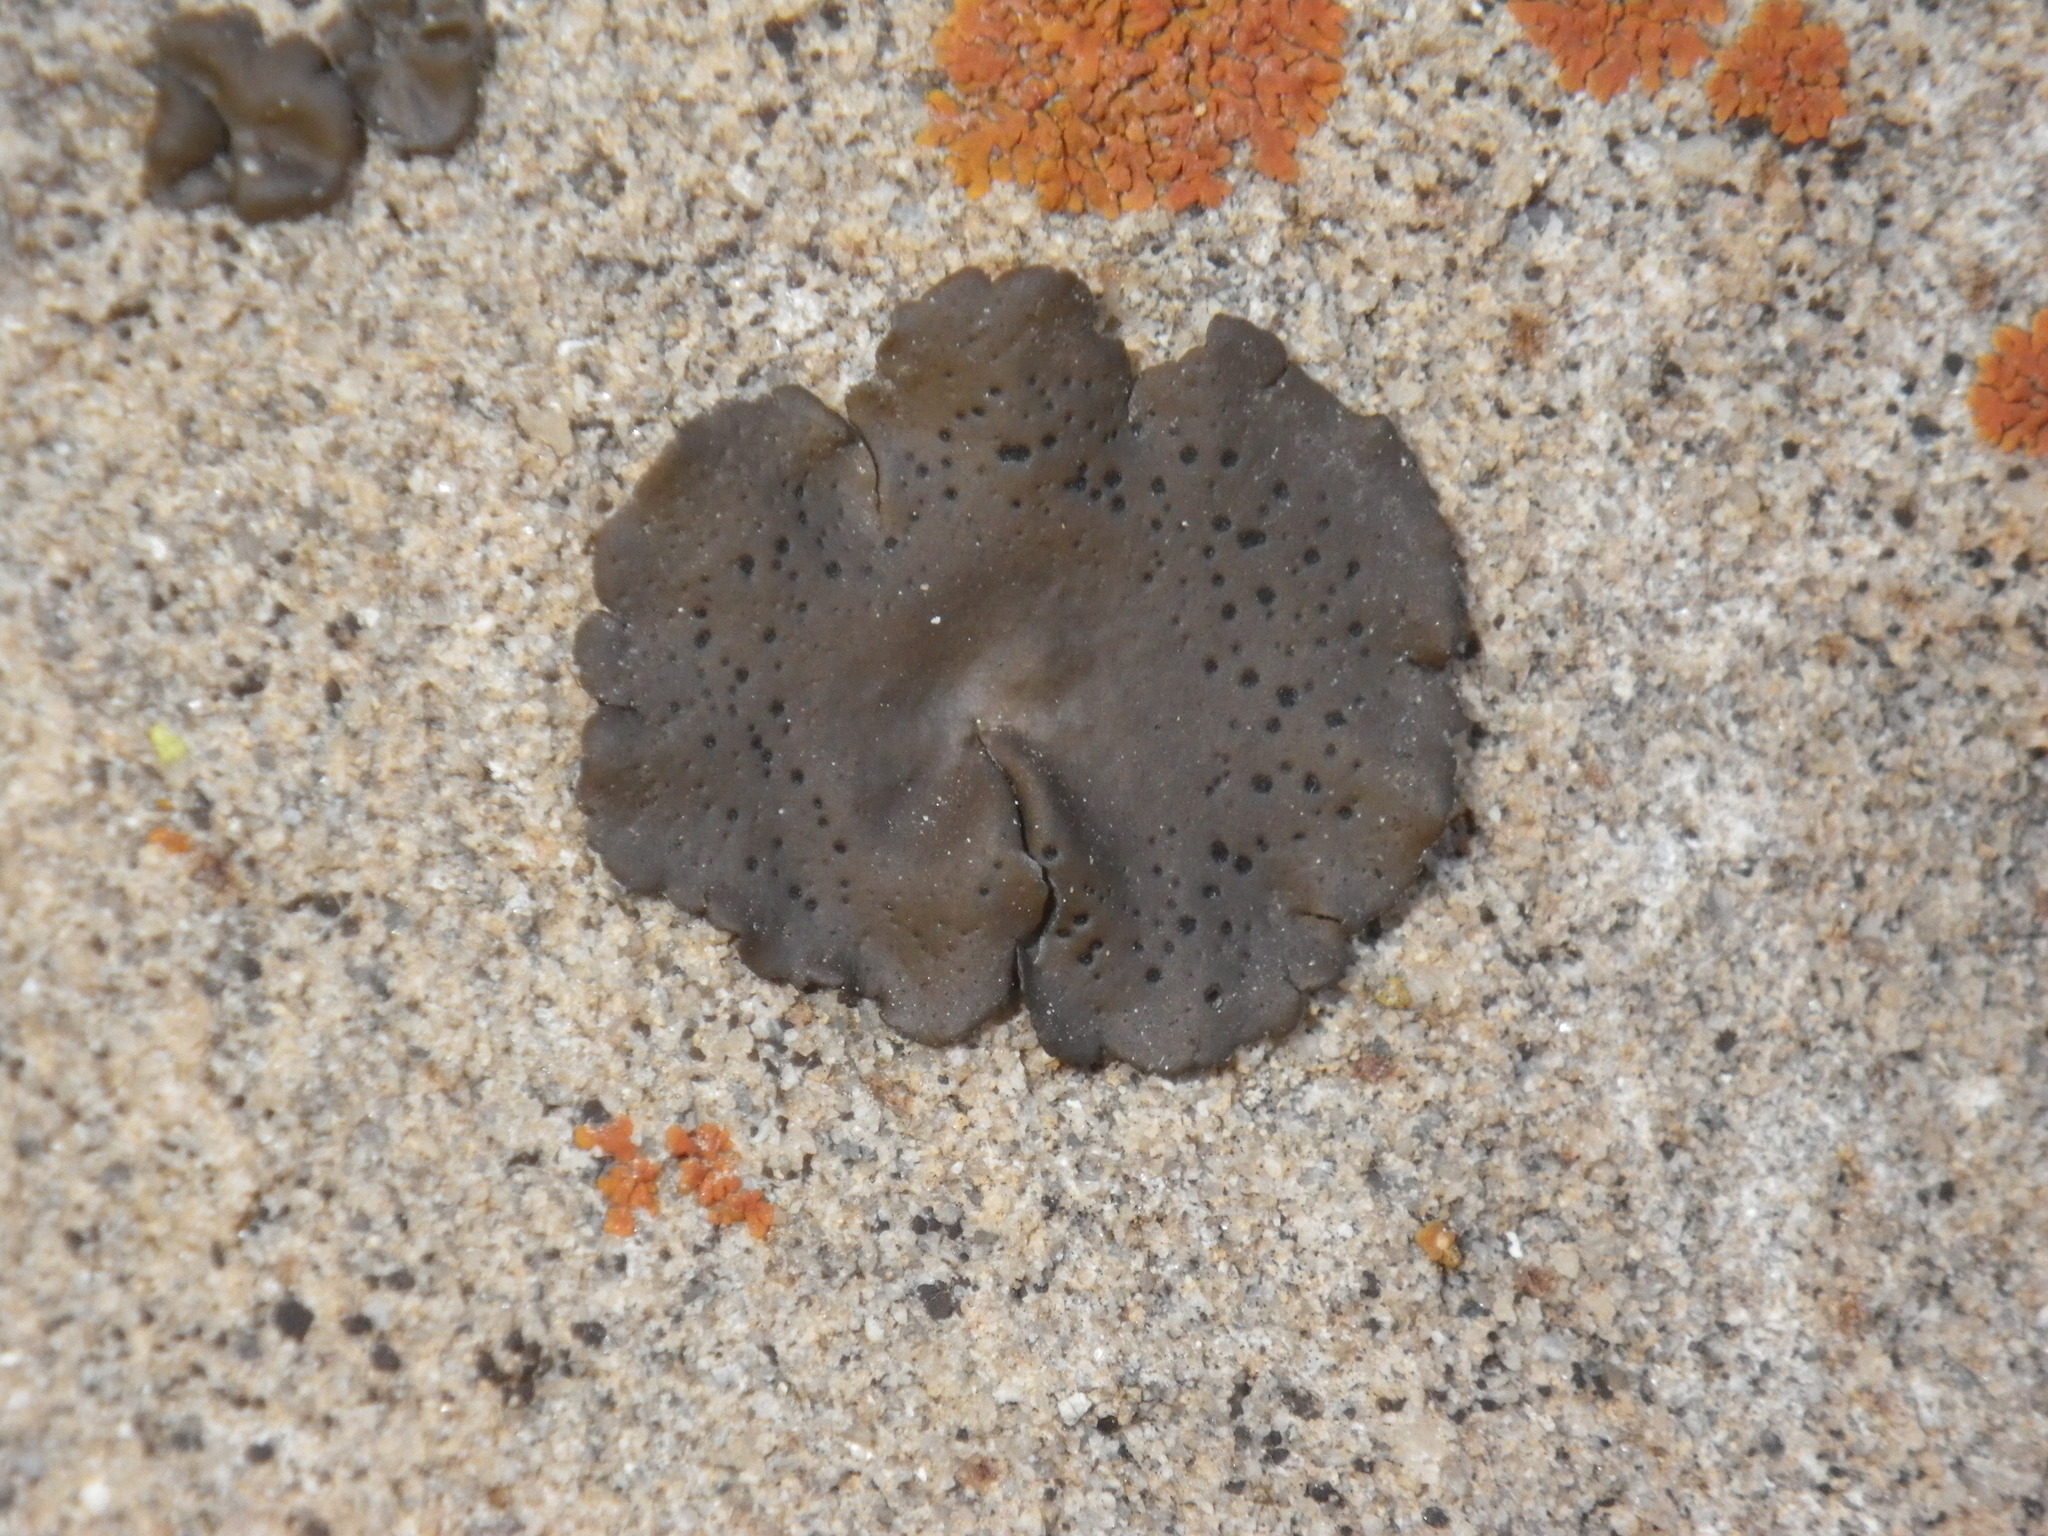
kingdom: Fungi
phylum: Ascomycota
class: Lecanoromycetes
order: Umbilicariales
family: Umbilicariaceae
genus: Umbilicaria
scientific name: Umbilicaria phaea
